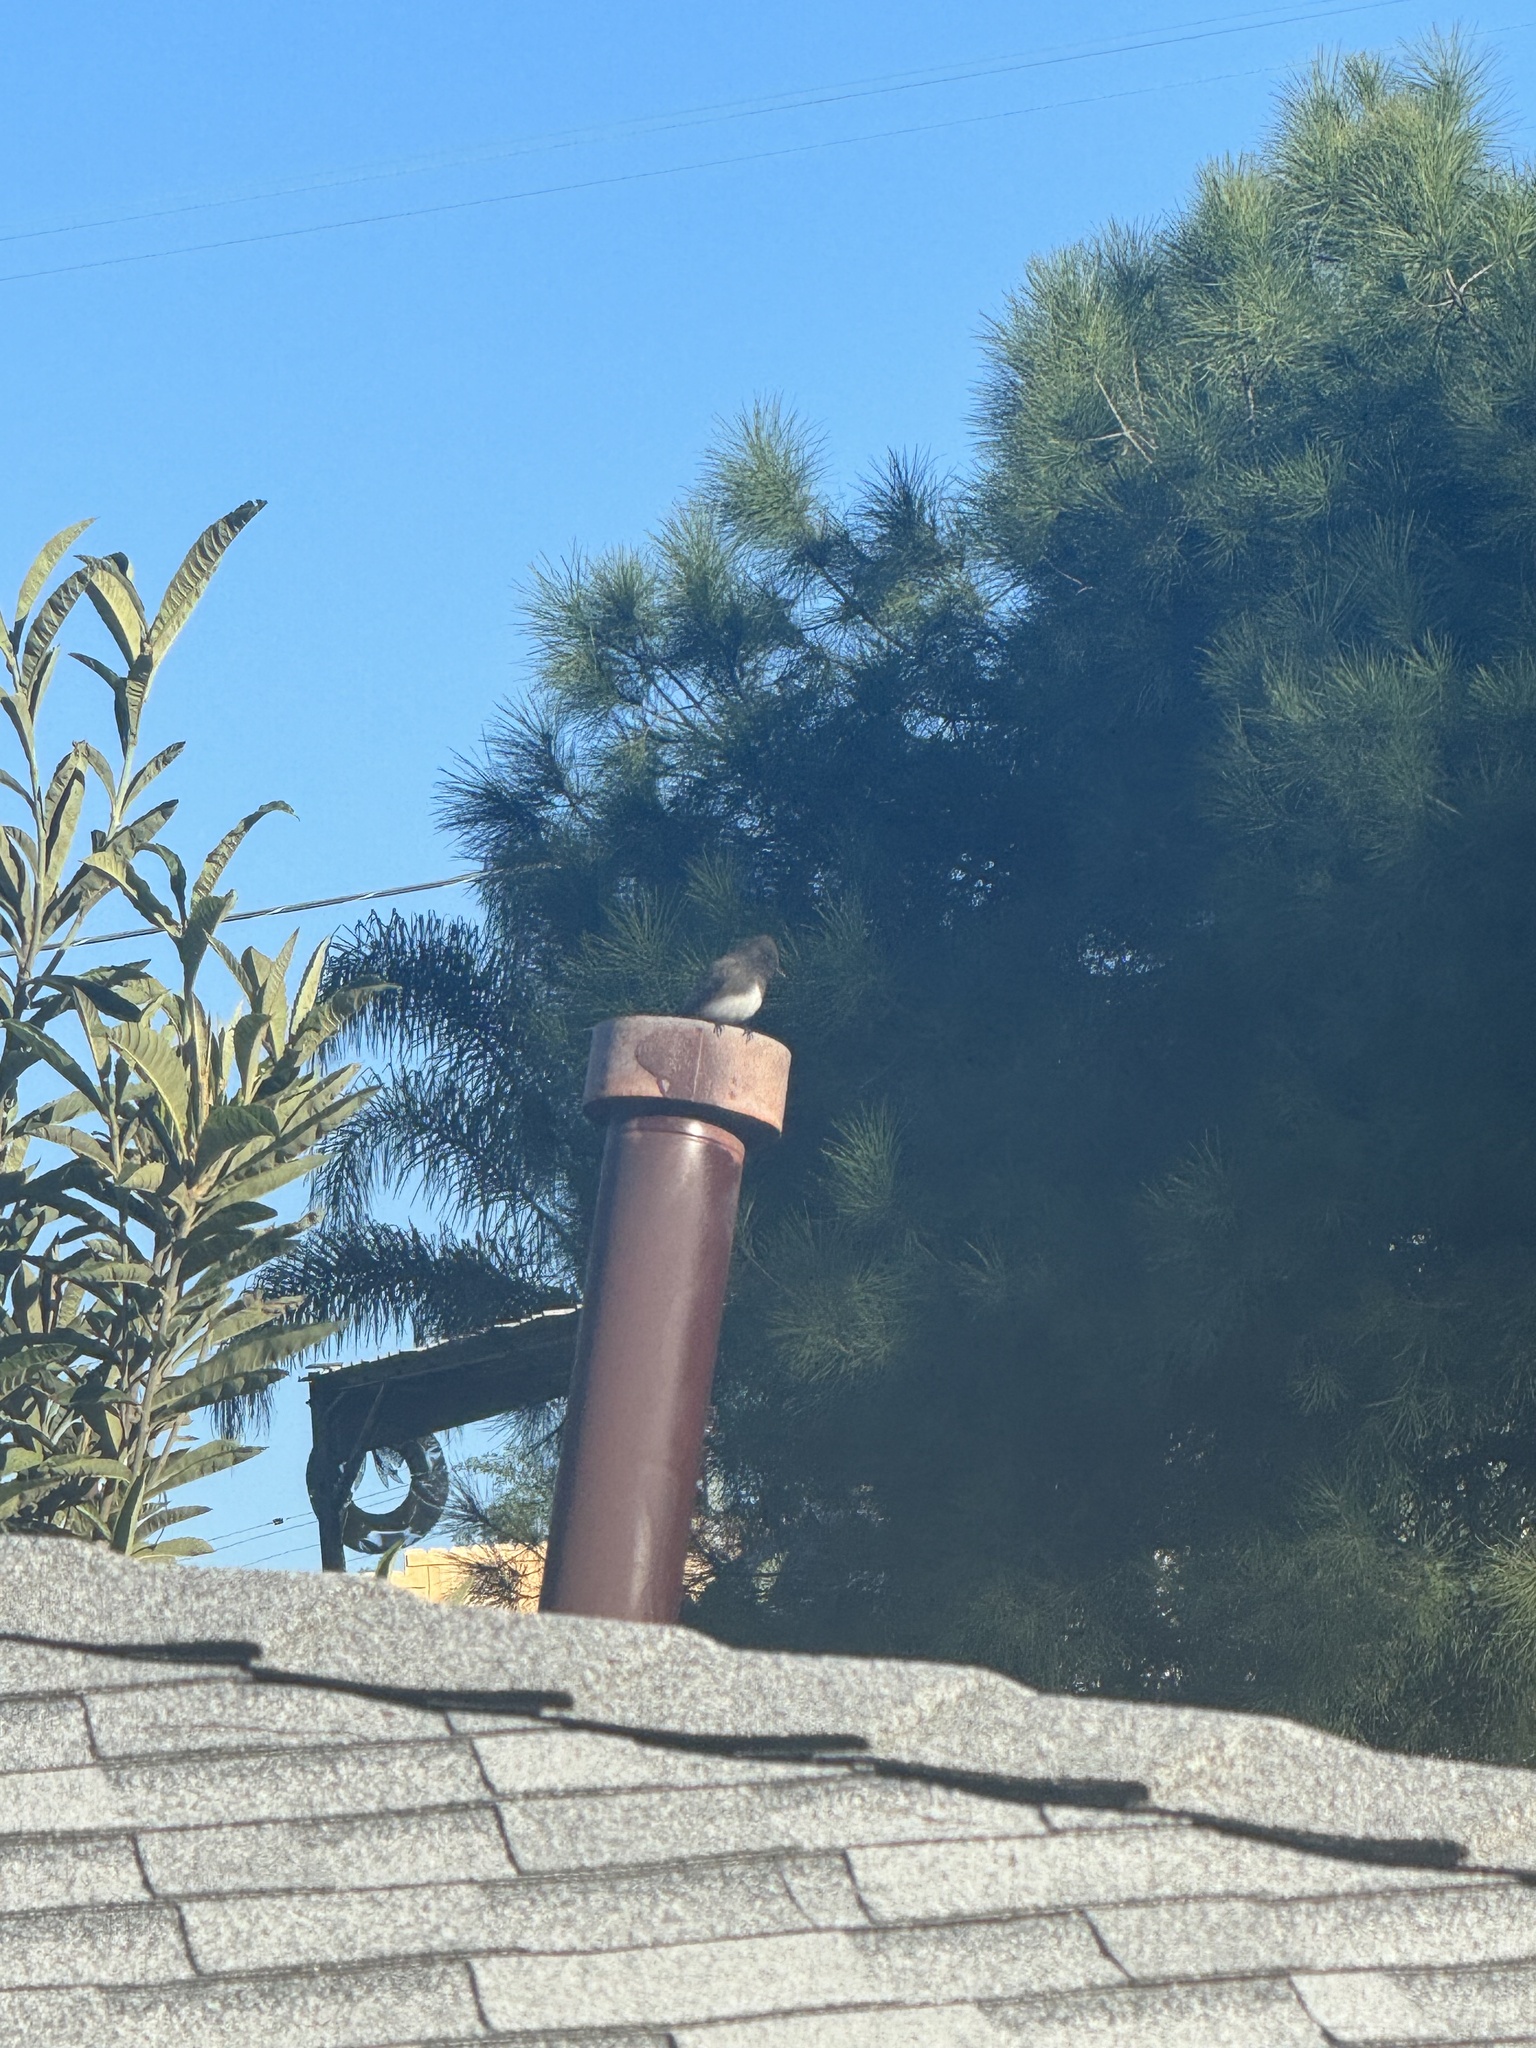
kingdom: Animalia
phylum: Chordata
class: Aves
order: Passeriformes
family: Tyrannidae
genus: Sayornis
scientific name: Sayornis nigricans
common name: Black phoebe
